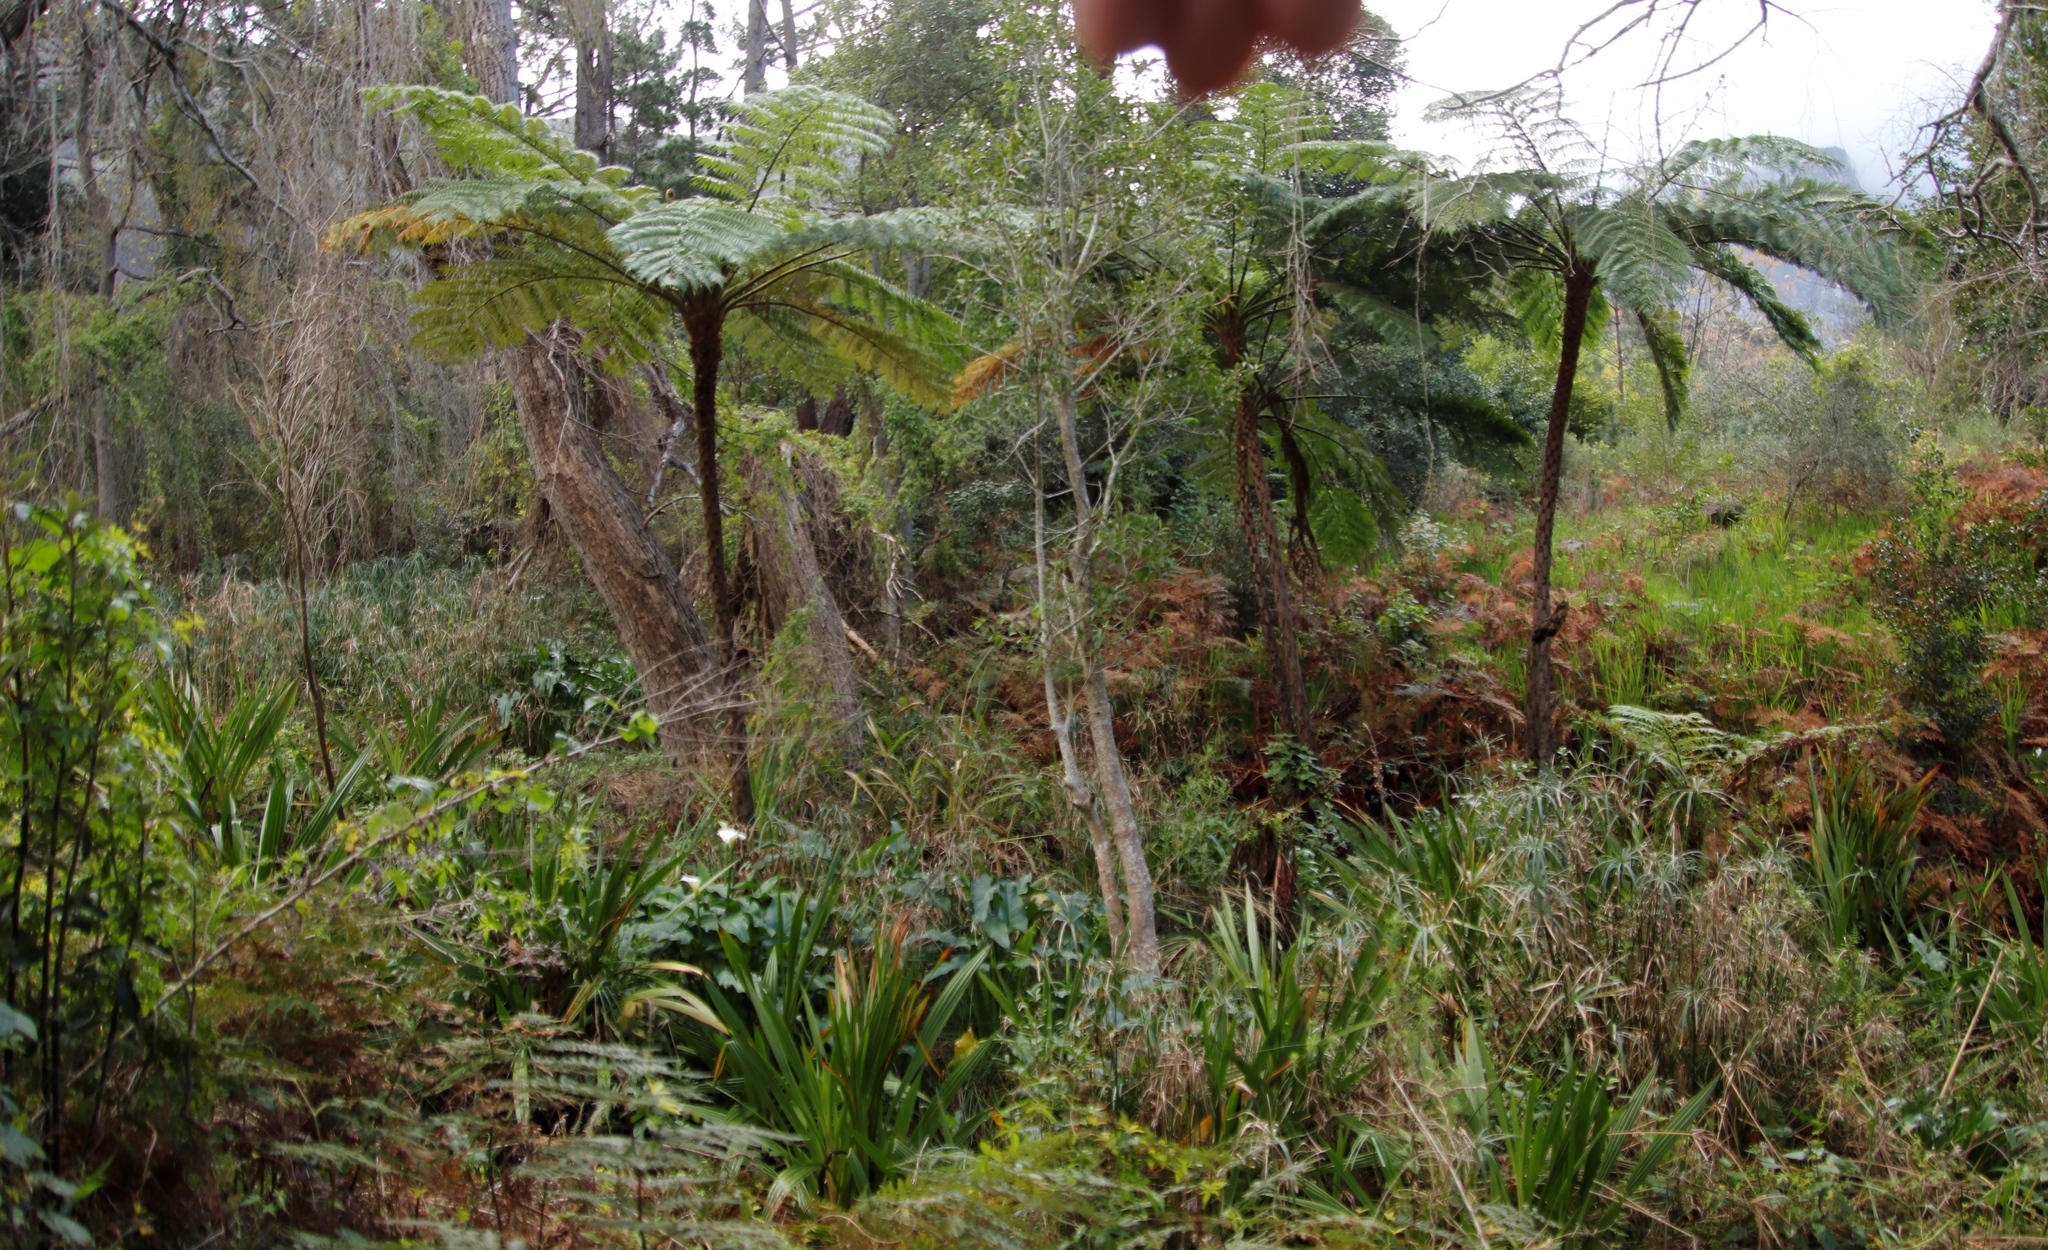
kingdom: Plantae
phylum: Tracheophyta
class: Polypodiopsida
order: Cyatheales
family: Cyatheaceae
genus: Sphaeropteris
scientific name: Sphaeropteris cooperi
